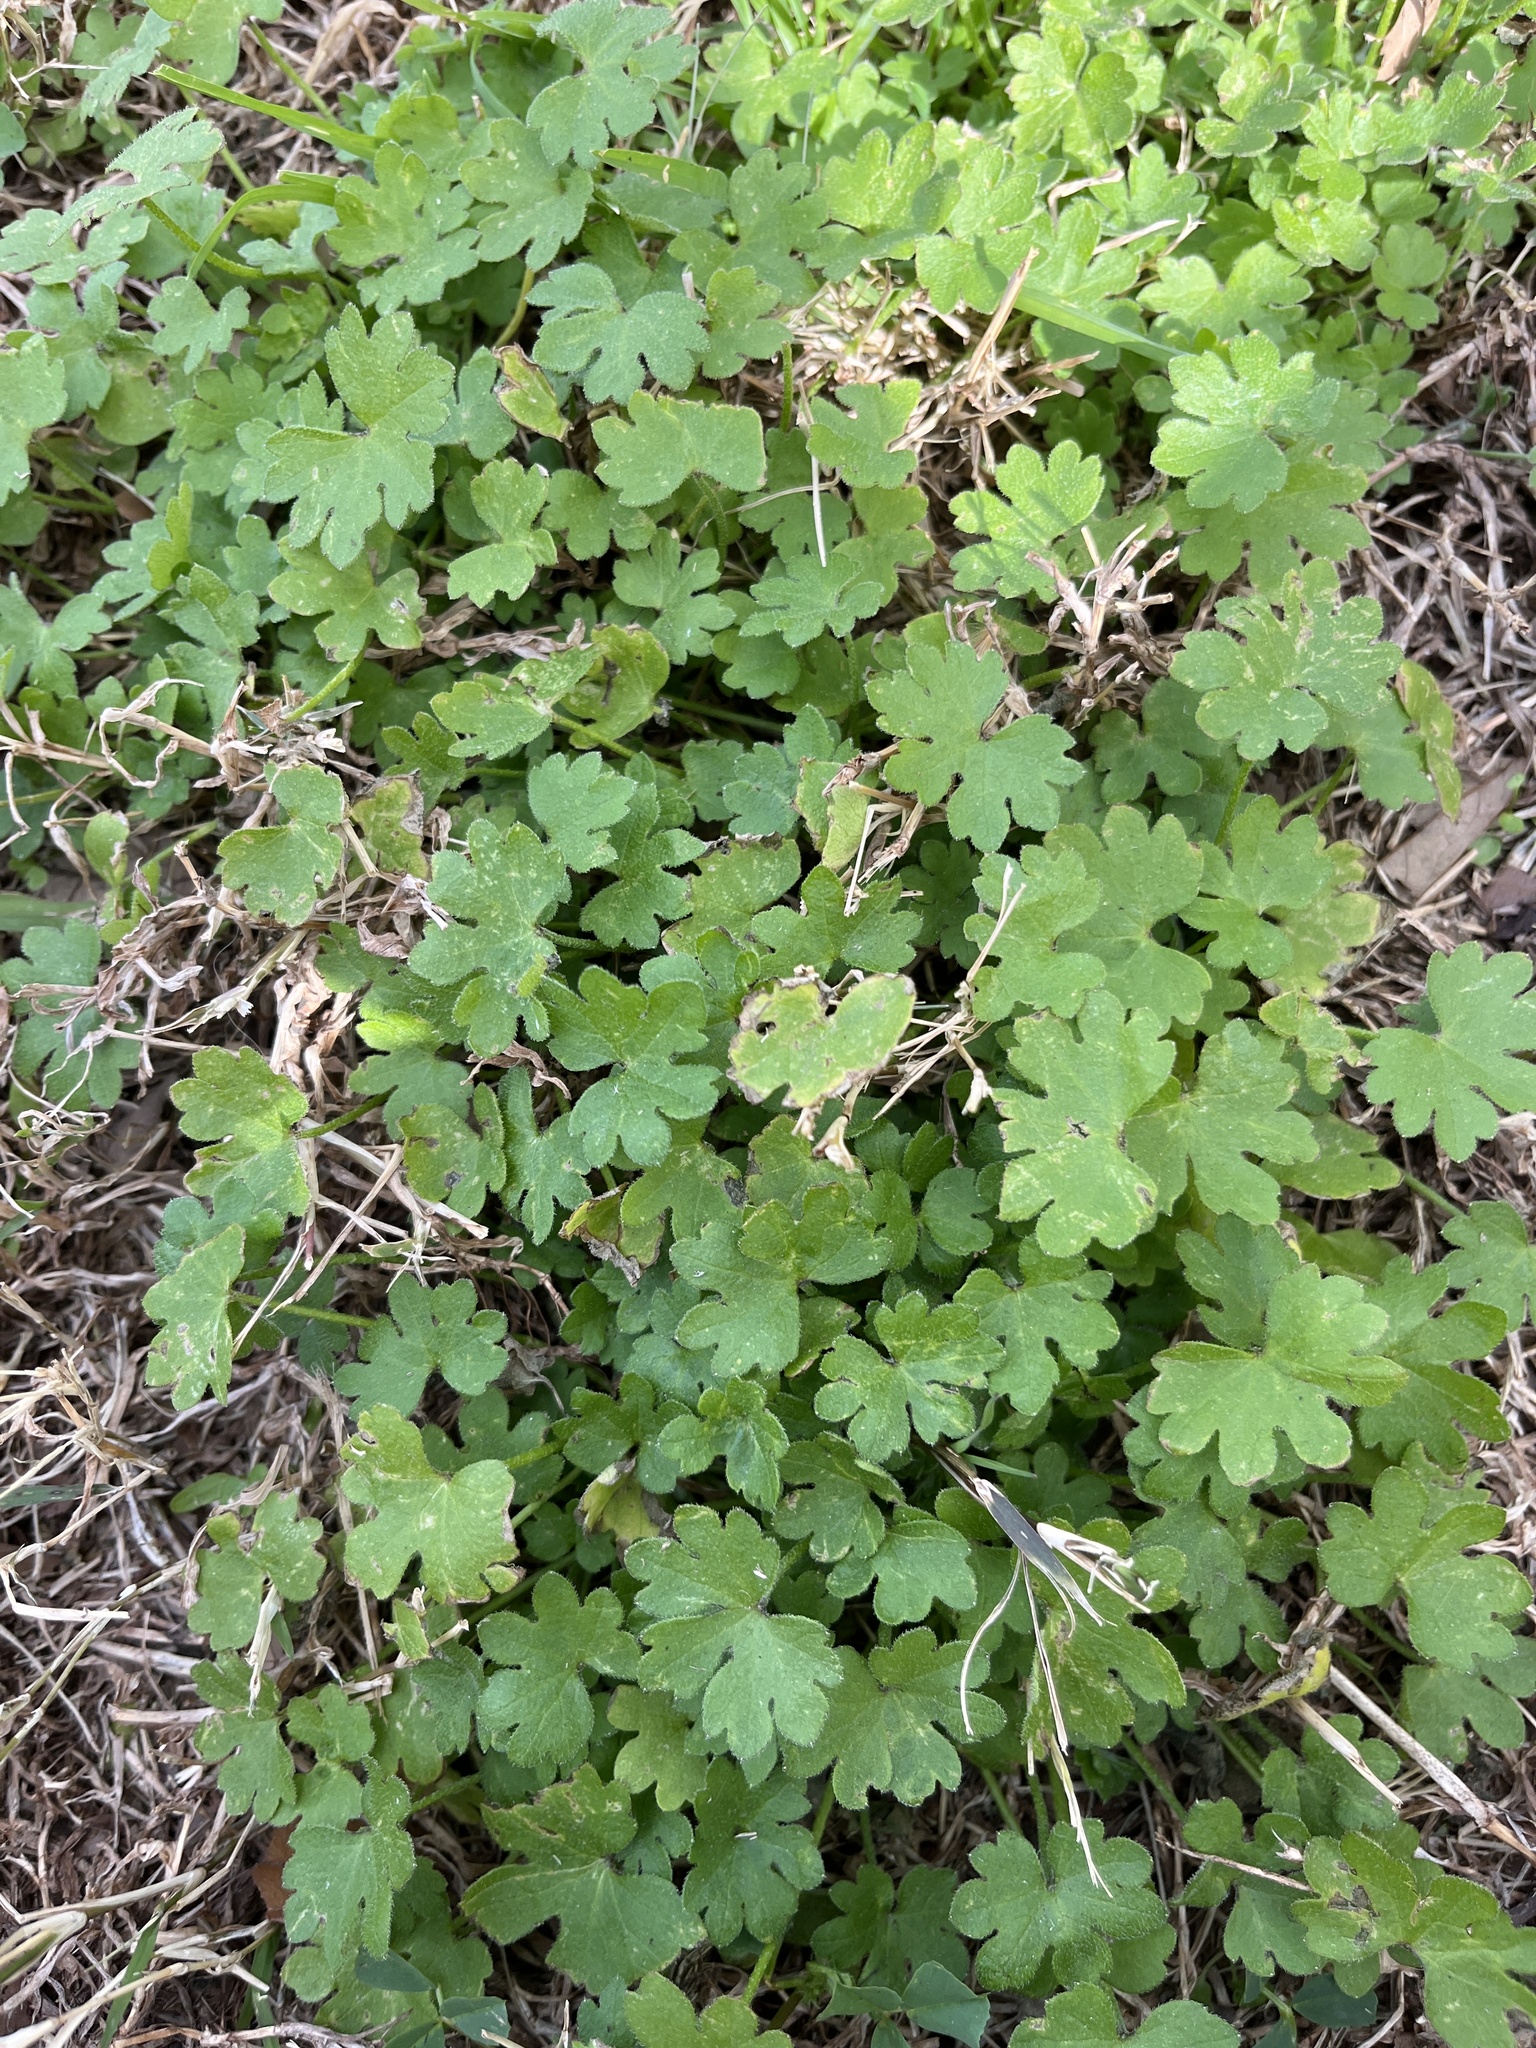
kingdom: Plantae
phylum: Tracheophyta
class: Magnoliopsida
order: Apiales
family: Apiaceae
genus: Bowlesia
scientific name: Bowlesia incana
